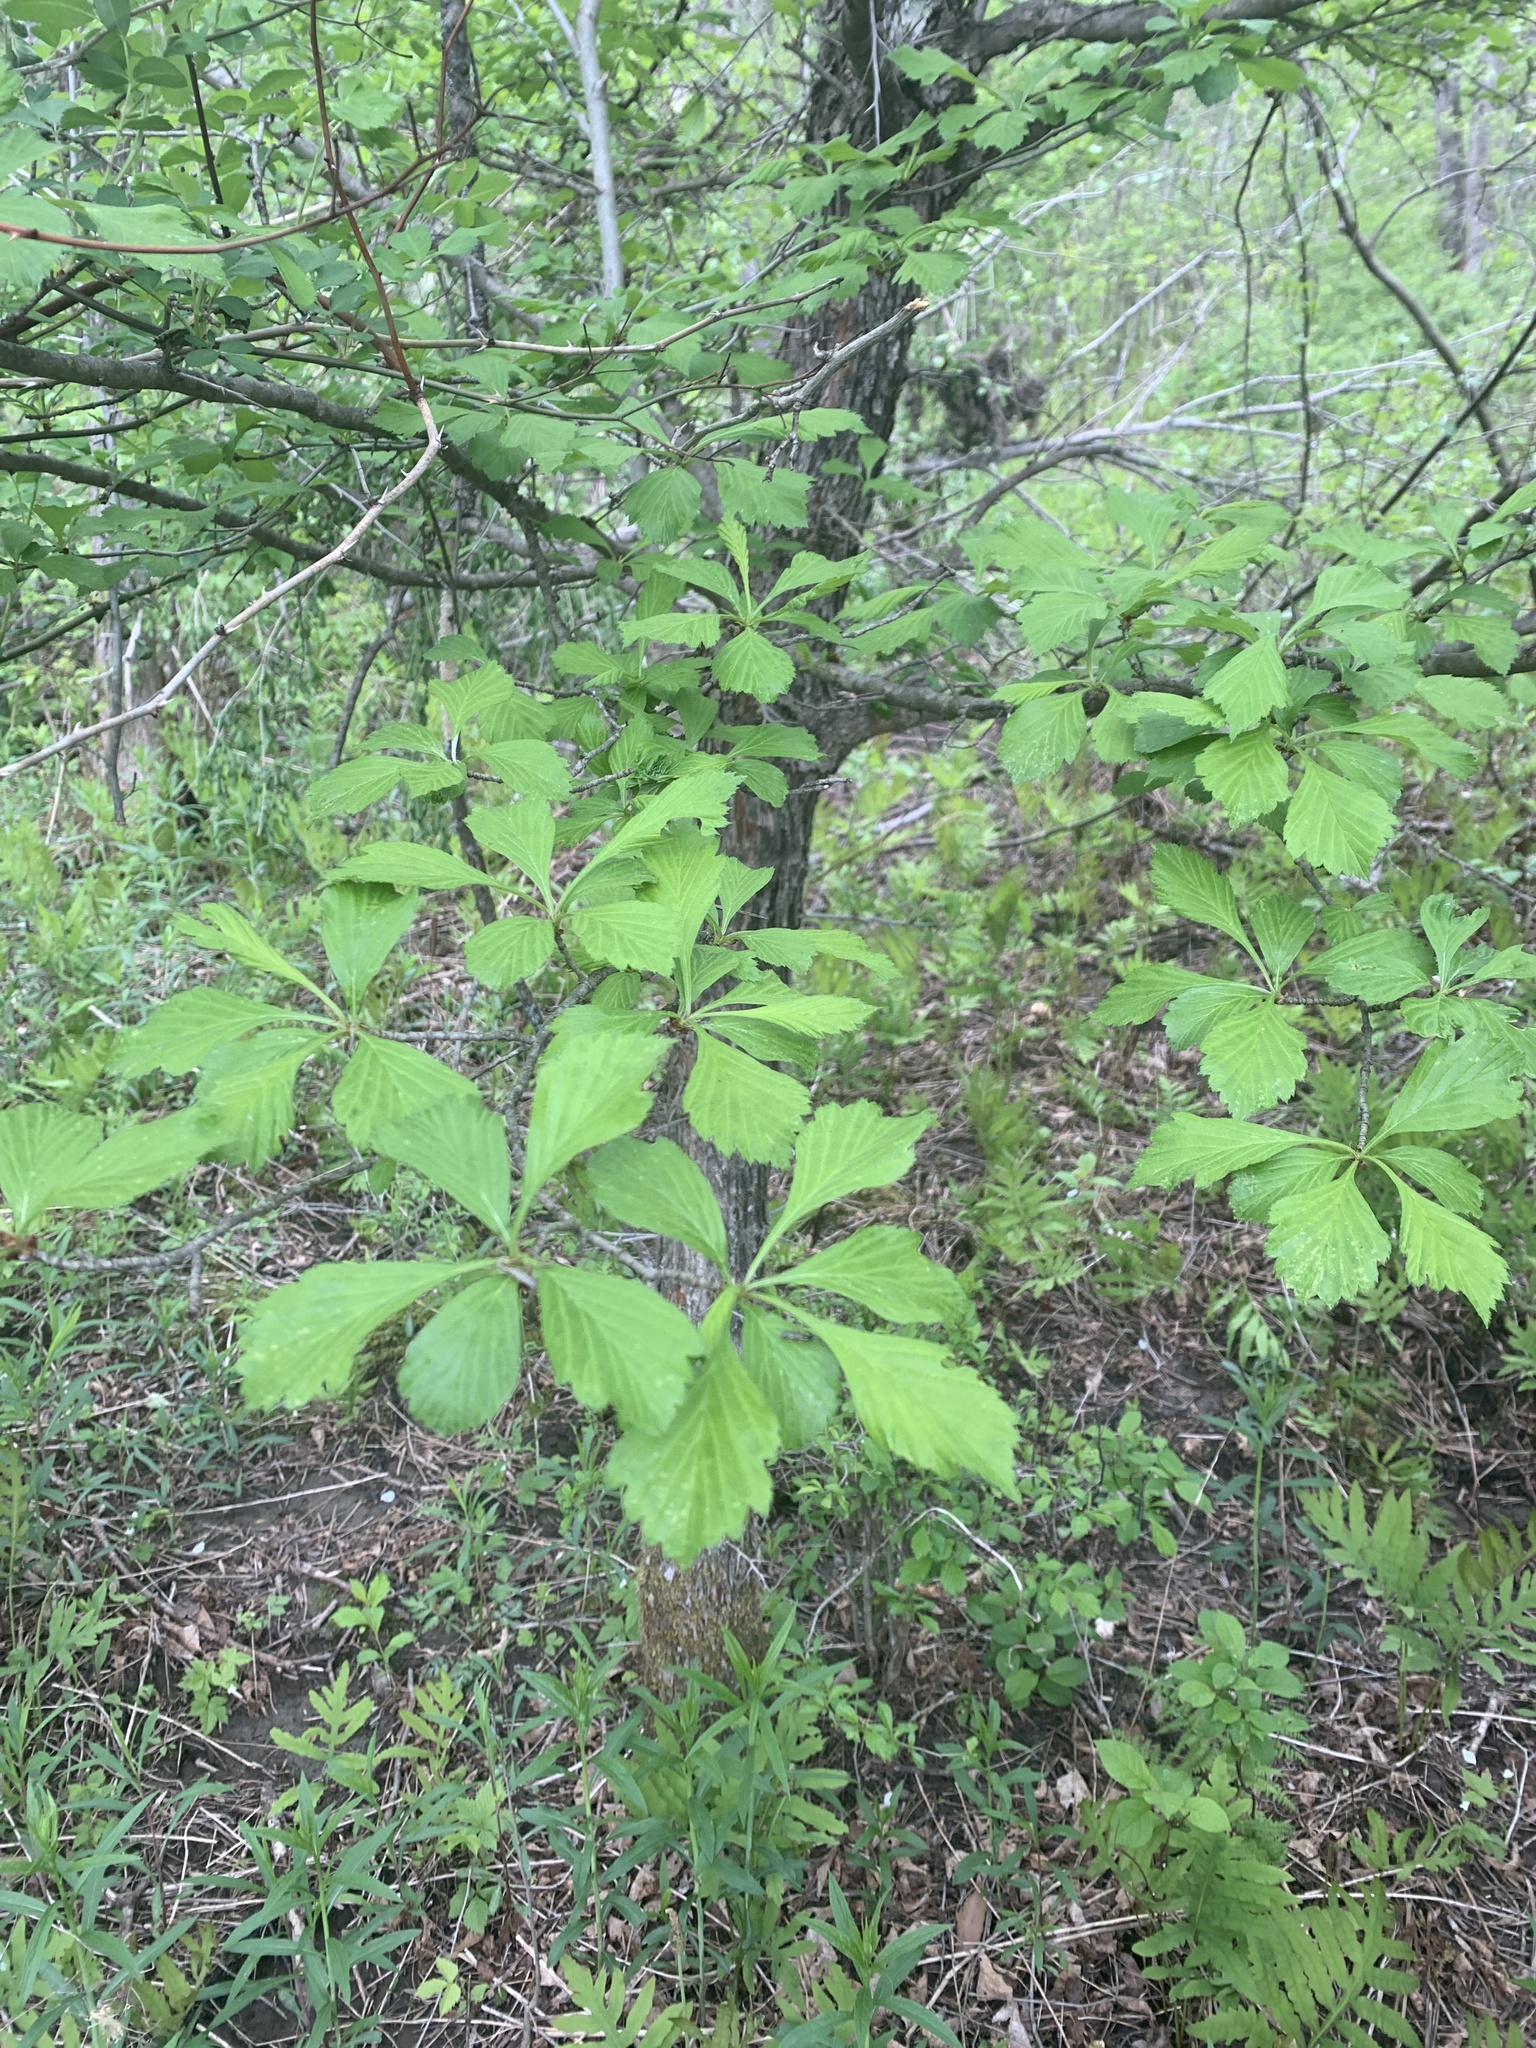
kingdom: Plantae
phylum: Tracheophyta
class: Magnoliopsida
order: Rosales
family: Rosaceae
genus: Crataegus
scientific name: Crataegus punctata
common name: Dotted hawthorn
